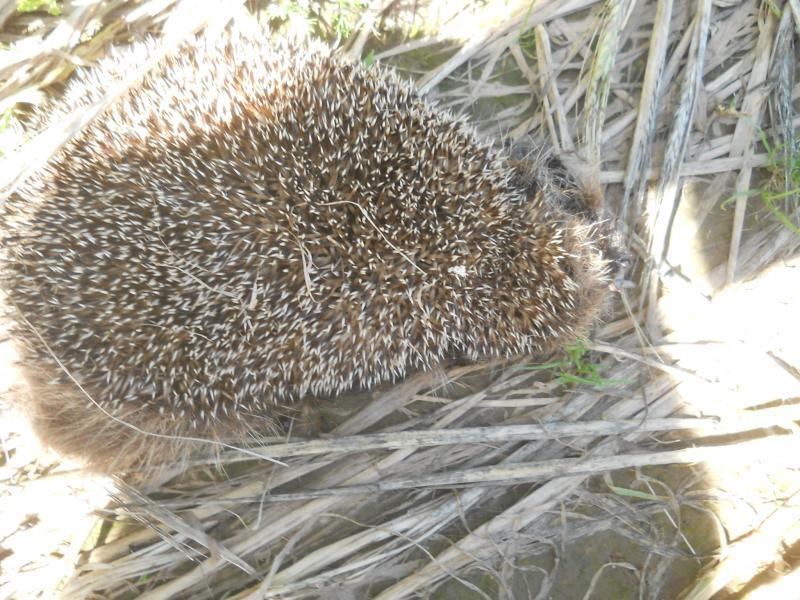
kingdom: Animalia
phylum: Chordata
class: Mammalia
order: Erinaceomorpha
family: Erinaceidae
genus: Erinaceus
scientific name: Erinaceus roumanicus
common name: Northern white-breasted hedgehog
